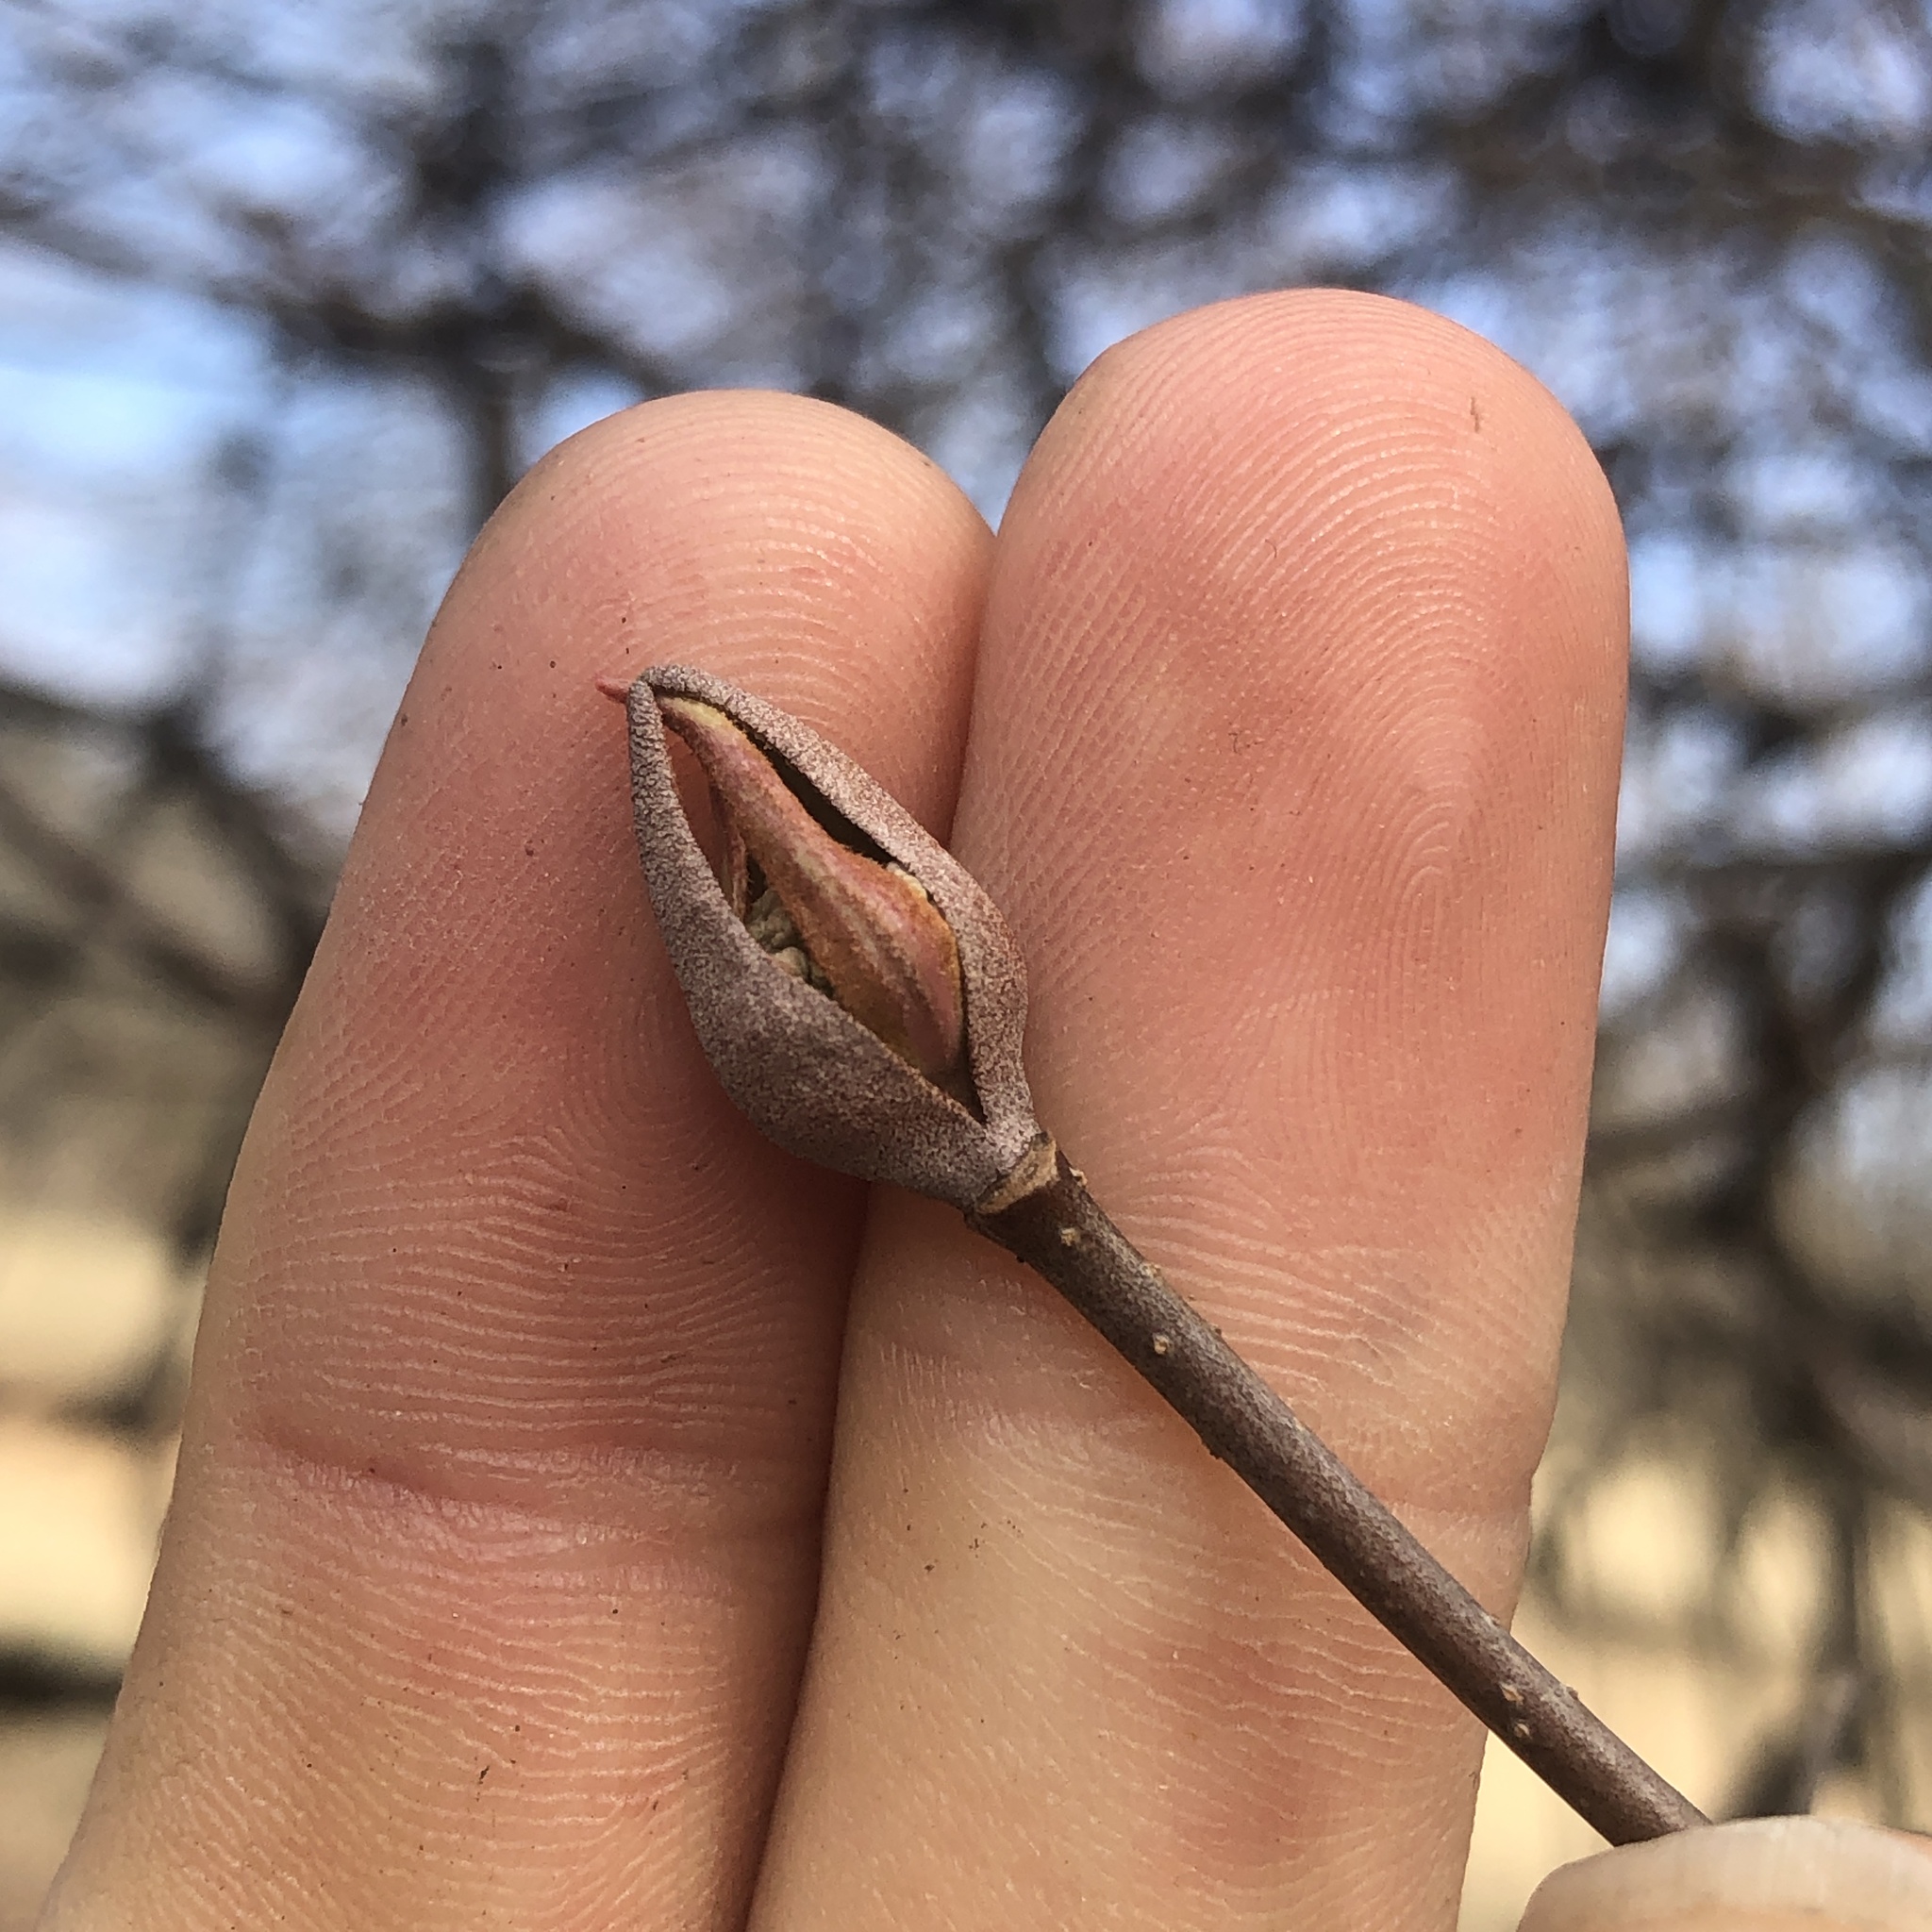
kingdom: Plantae
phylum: Tracheophyta
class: Magnoliopsida
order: Dipsacales
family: Viburnaceae
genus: Viburnum
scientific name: Viburnum prunifolium
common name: Black haw
